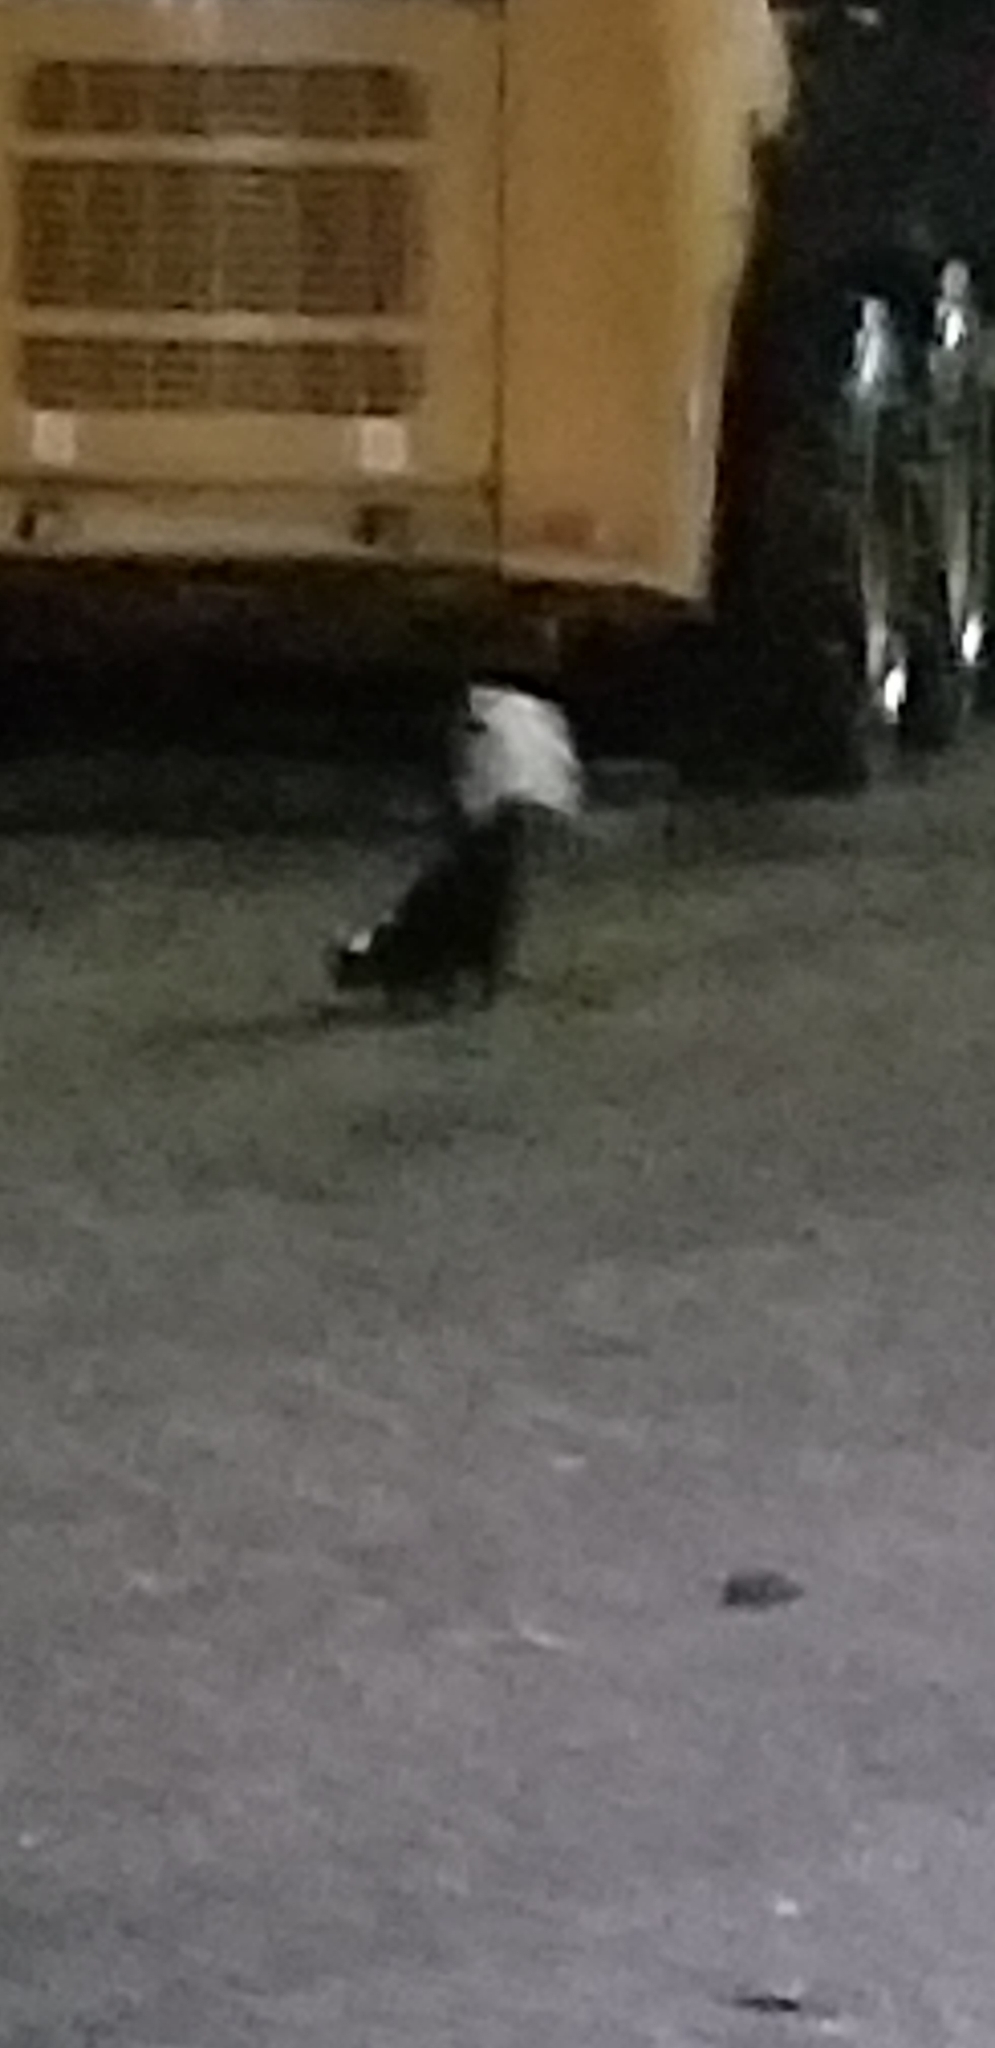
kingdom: Animalia
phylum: Chordata
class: Mammalia
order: Carnivora
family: Mephitidae
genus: Mephitis
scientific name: Mephitis mephitis
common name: Striped skunk
